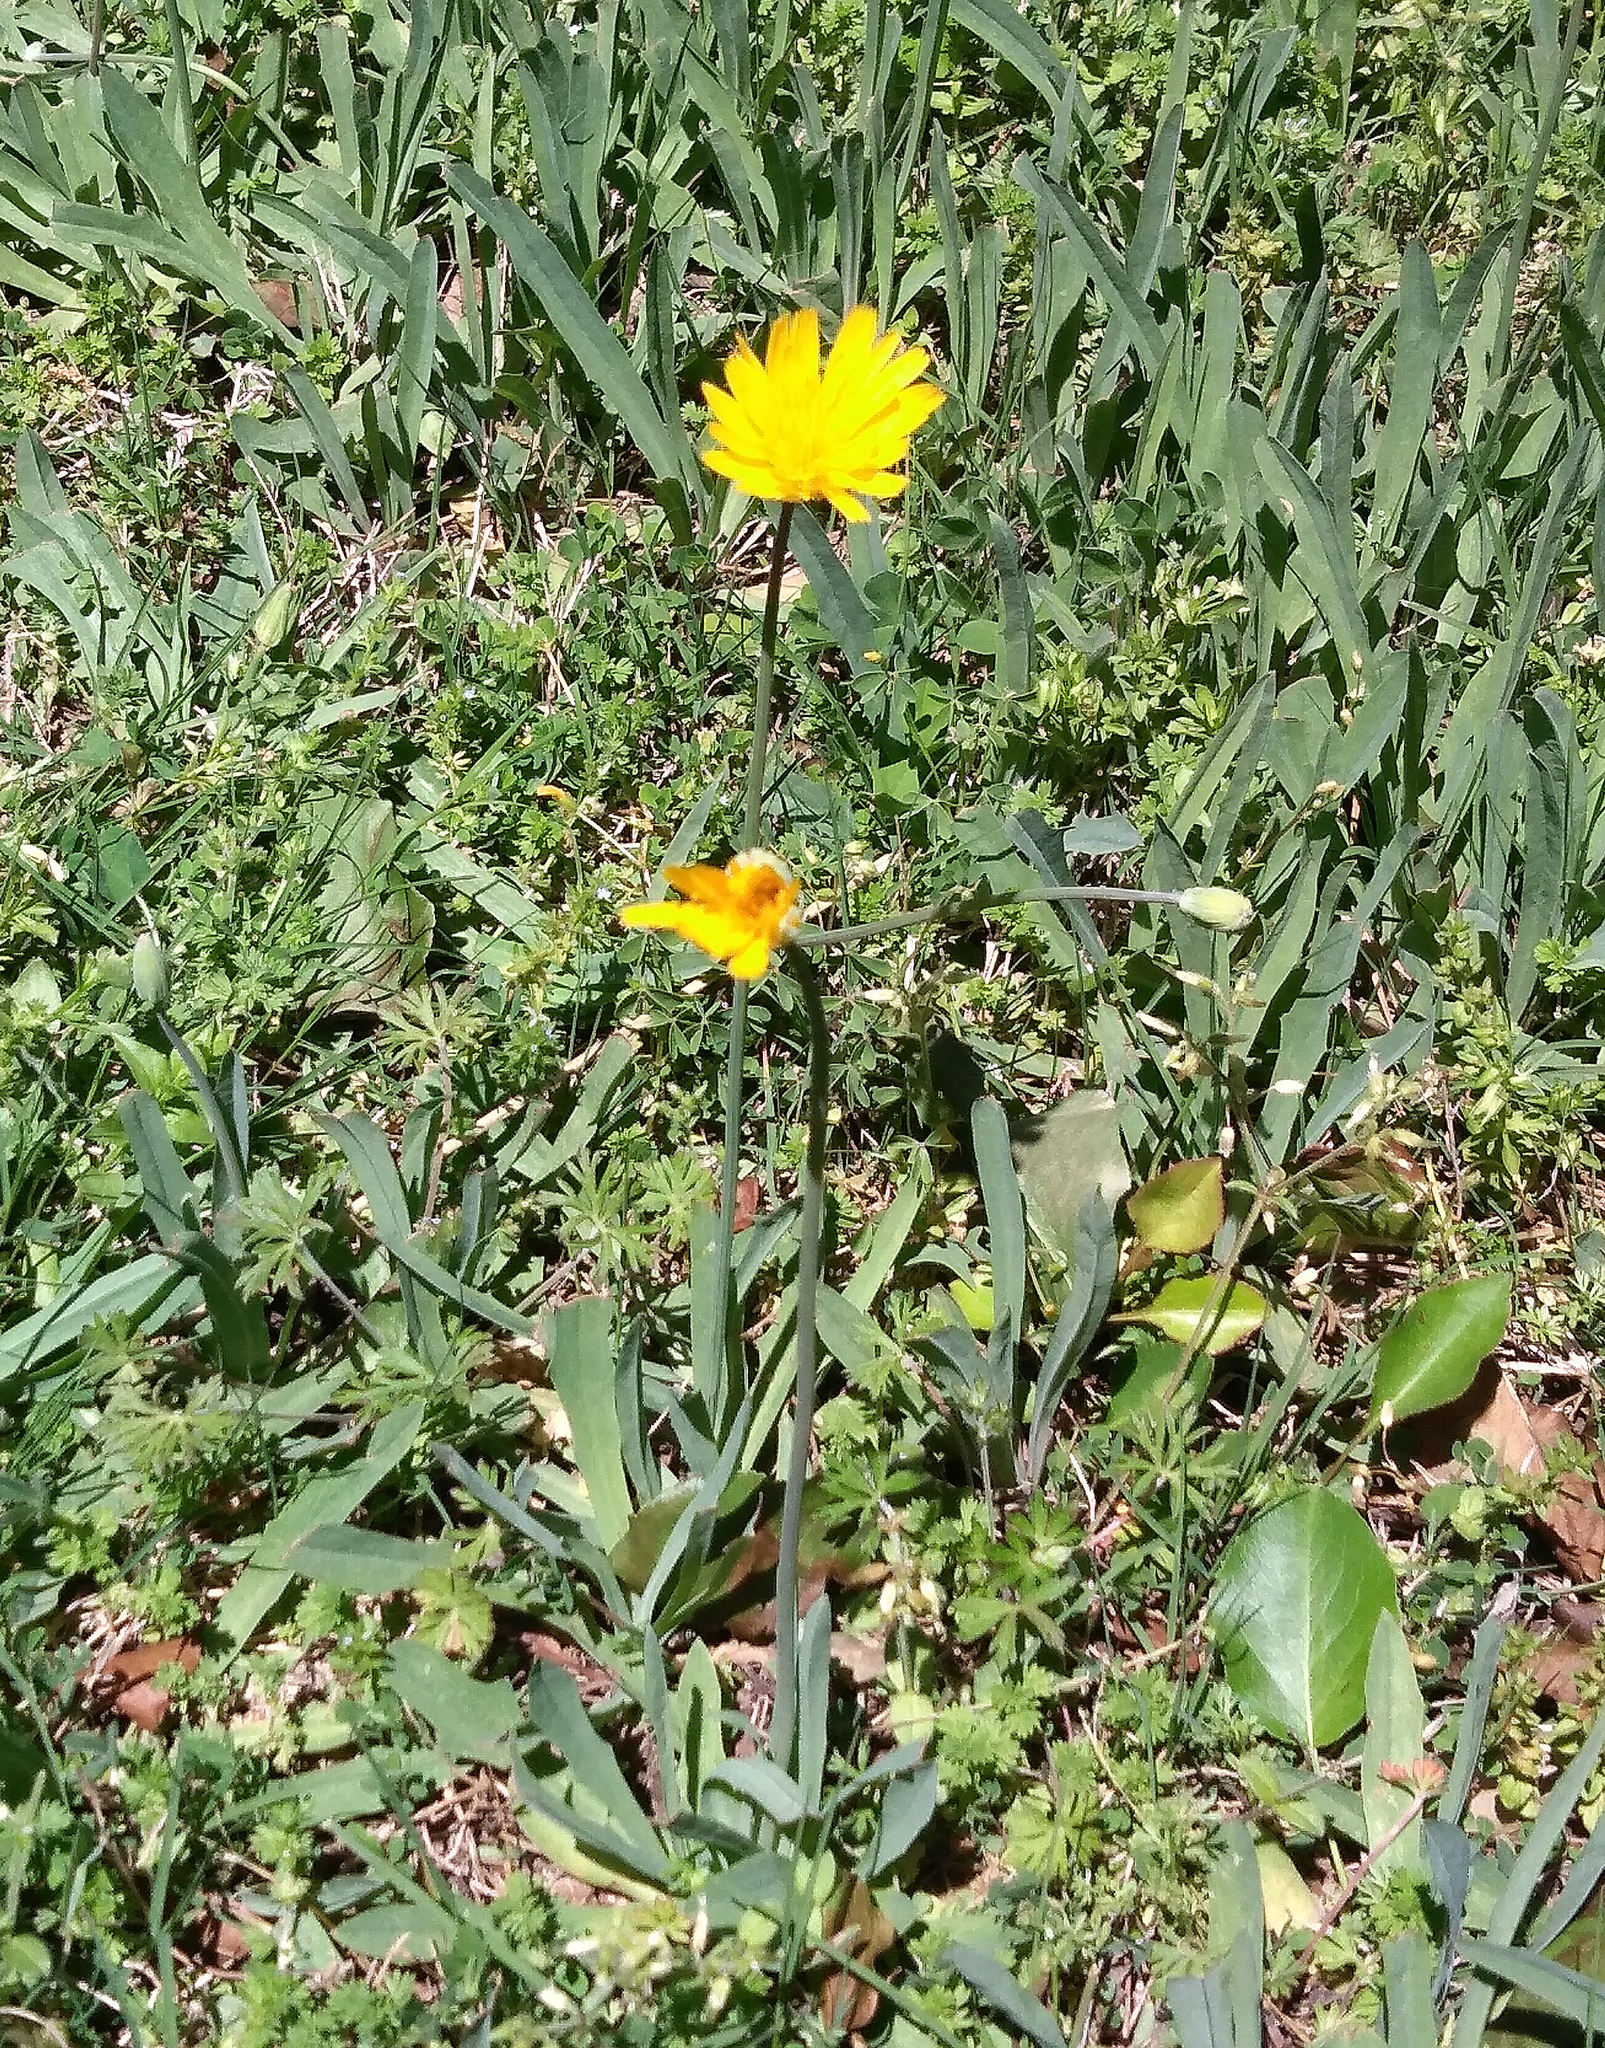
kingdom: Plantae
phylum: Tracheophyta
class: Magnoliopsida
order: Asterales
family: Asteraceae
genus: Krigia
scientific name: Krigia dandelion
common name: Colonial dwarf-dandelion
